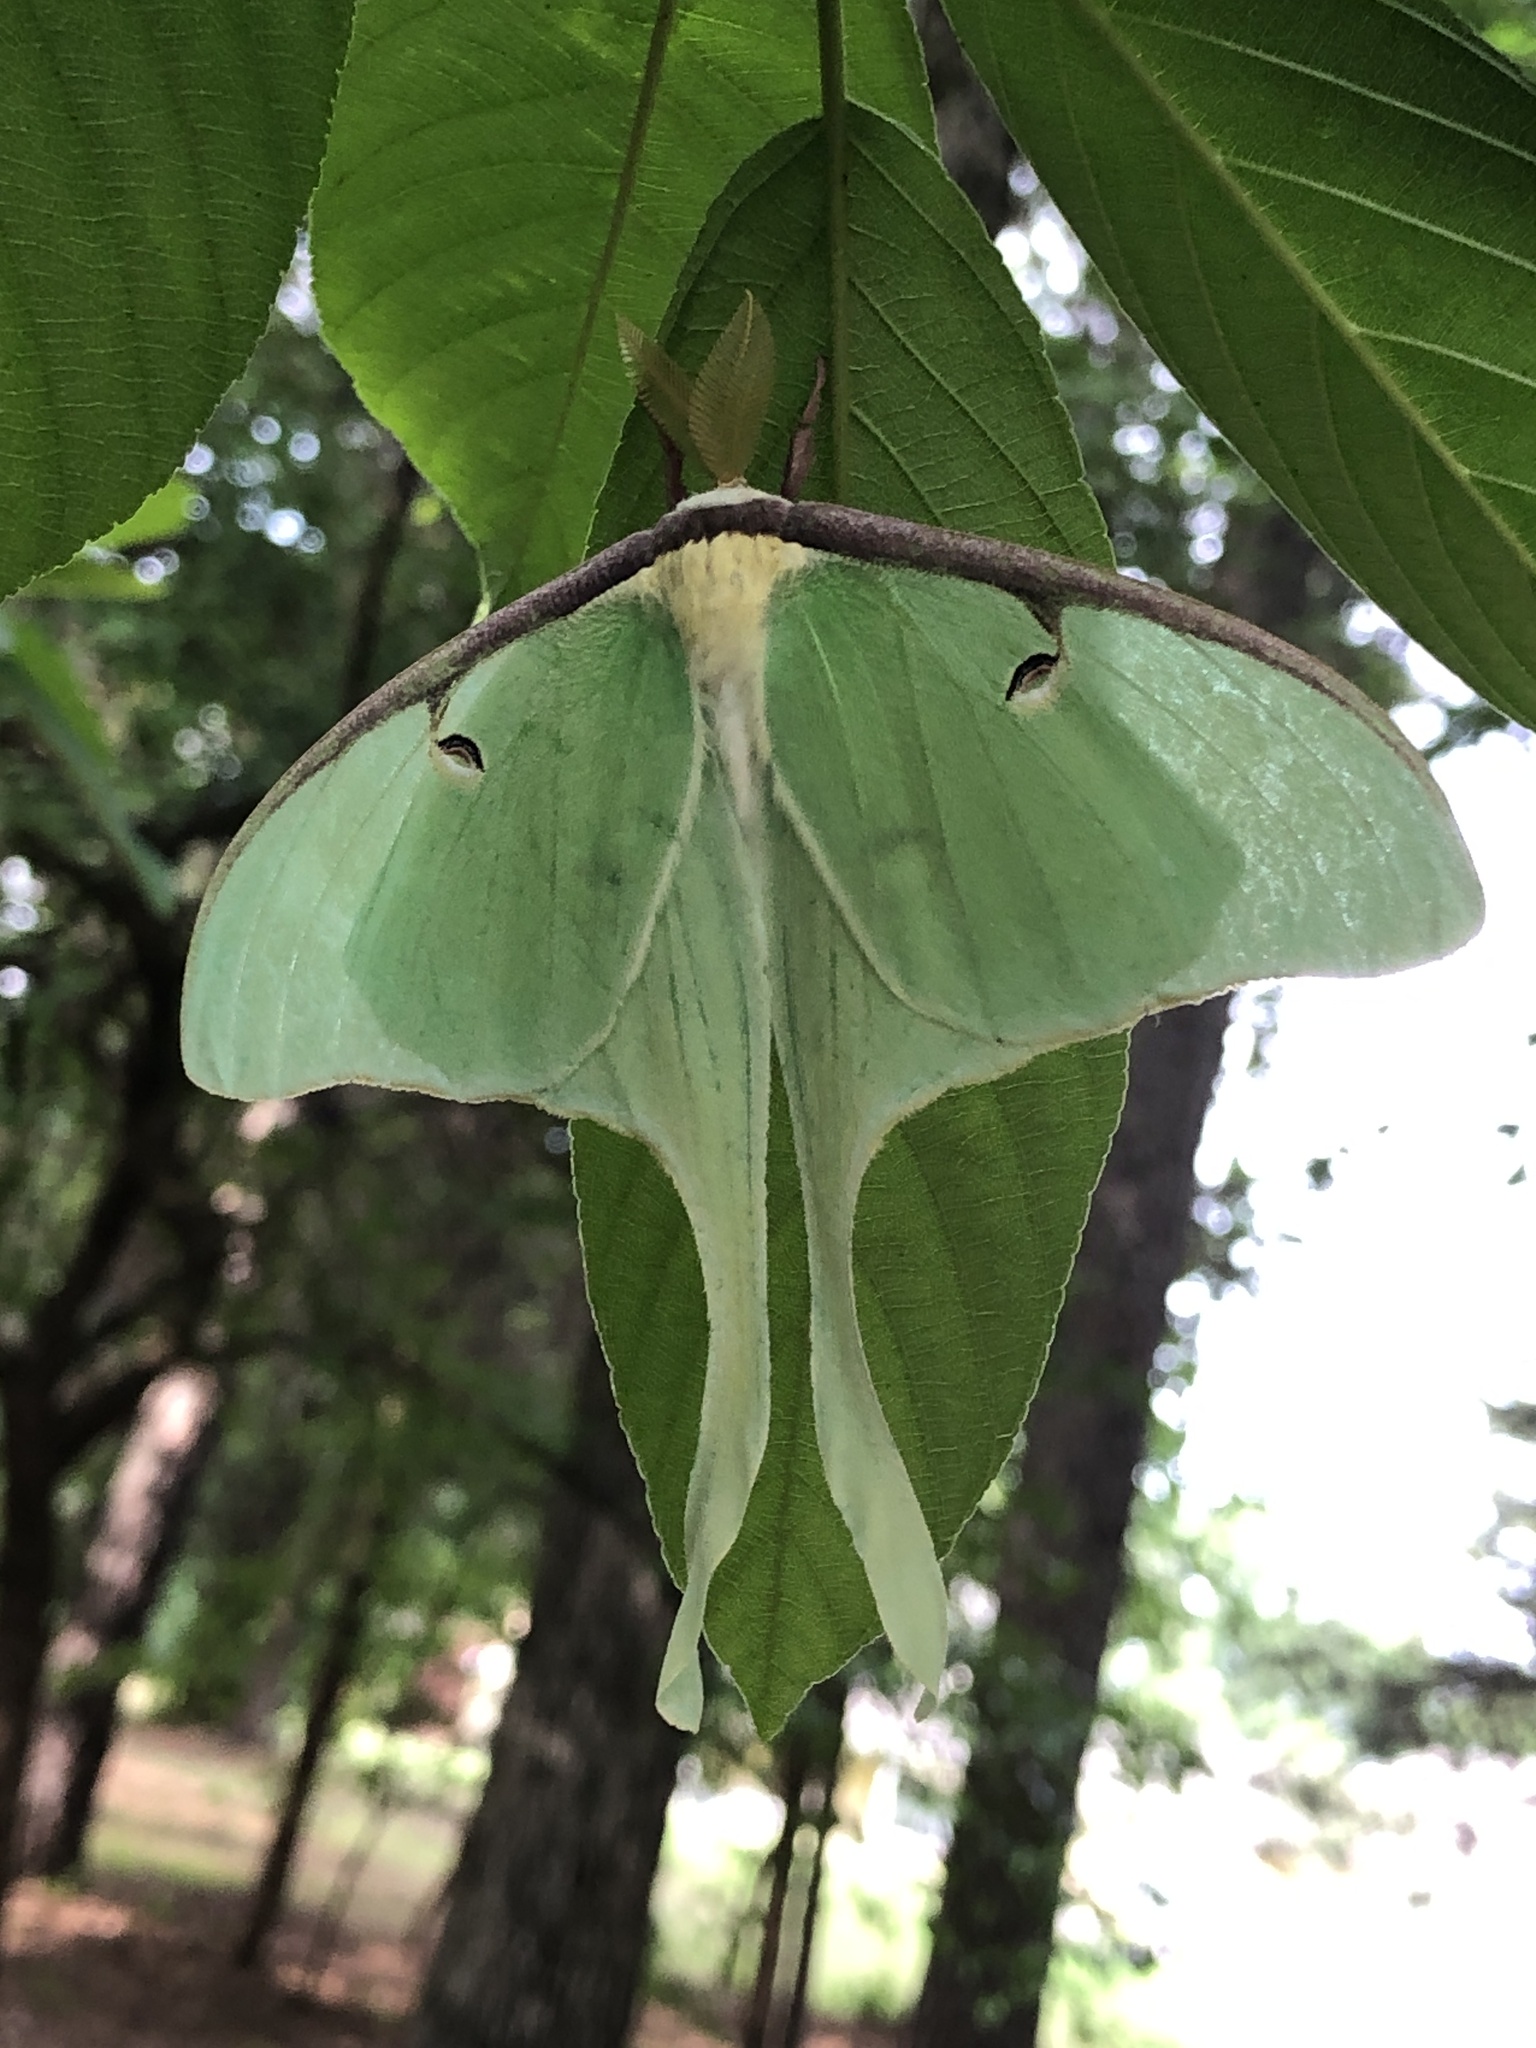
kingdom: Animalia
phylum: Arthropoda
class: Insecta
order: Lepidoptera
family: Saturniidae
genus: Actias
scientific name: Actias luna
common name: Luna moth
